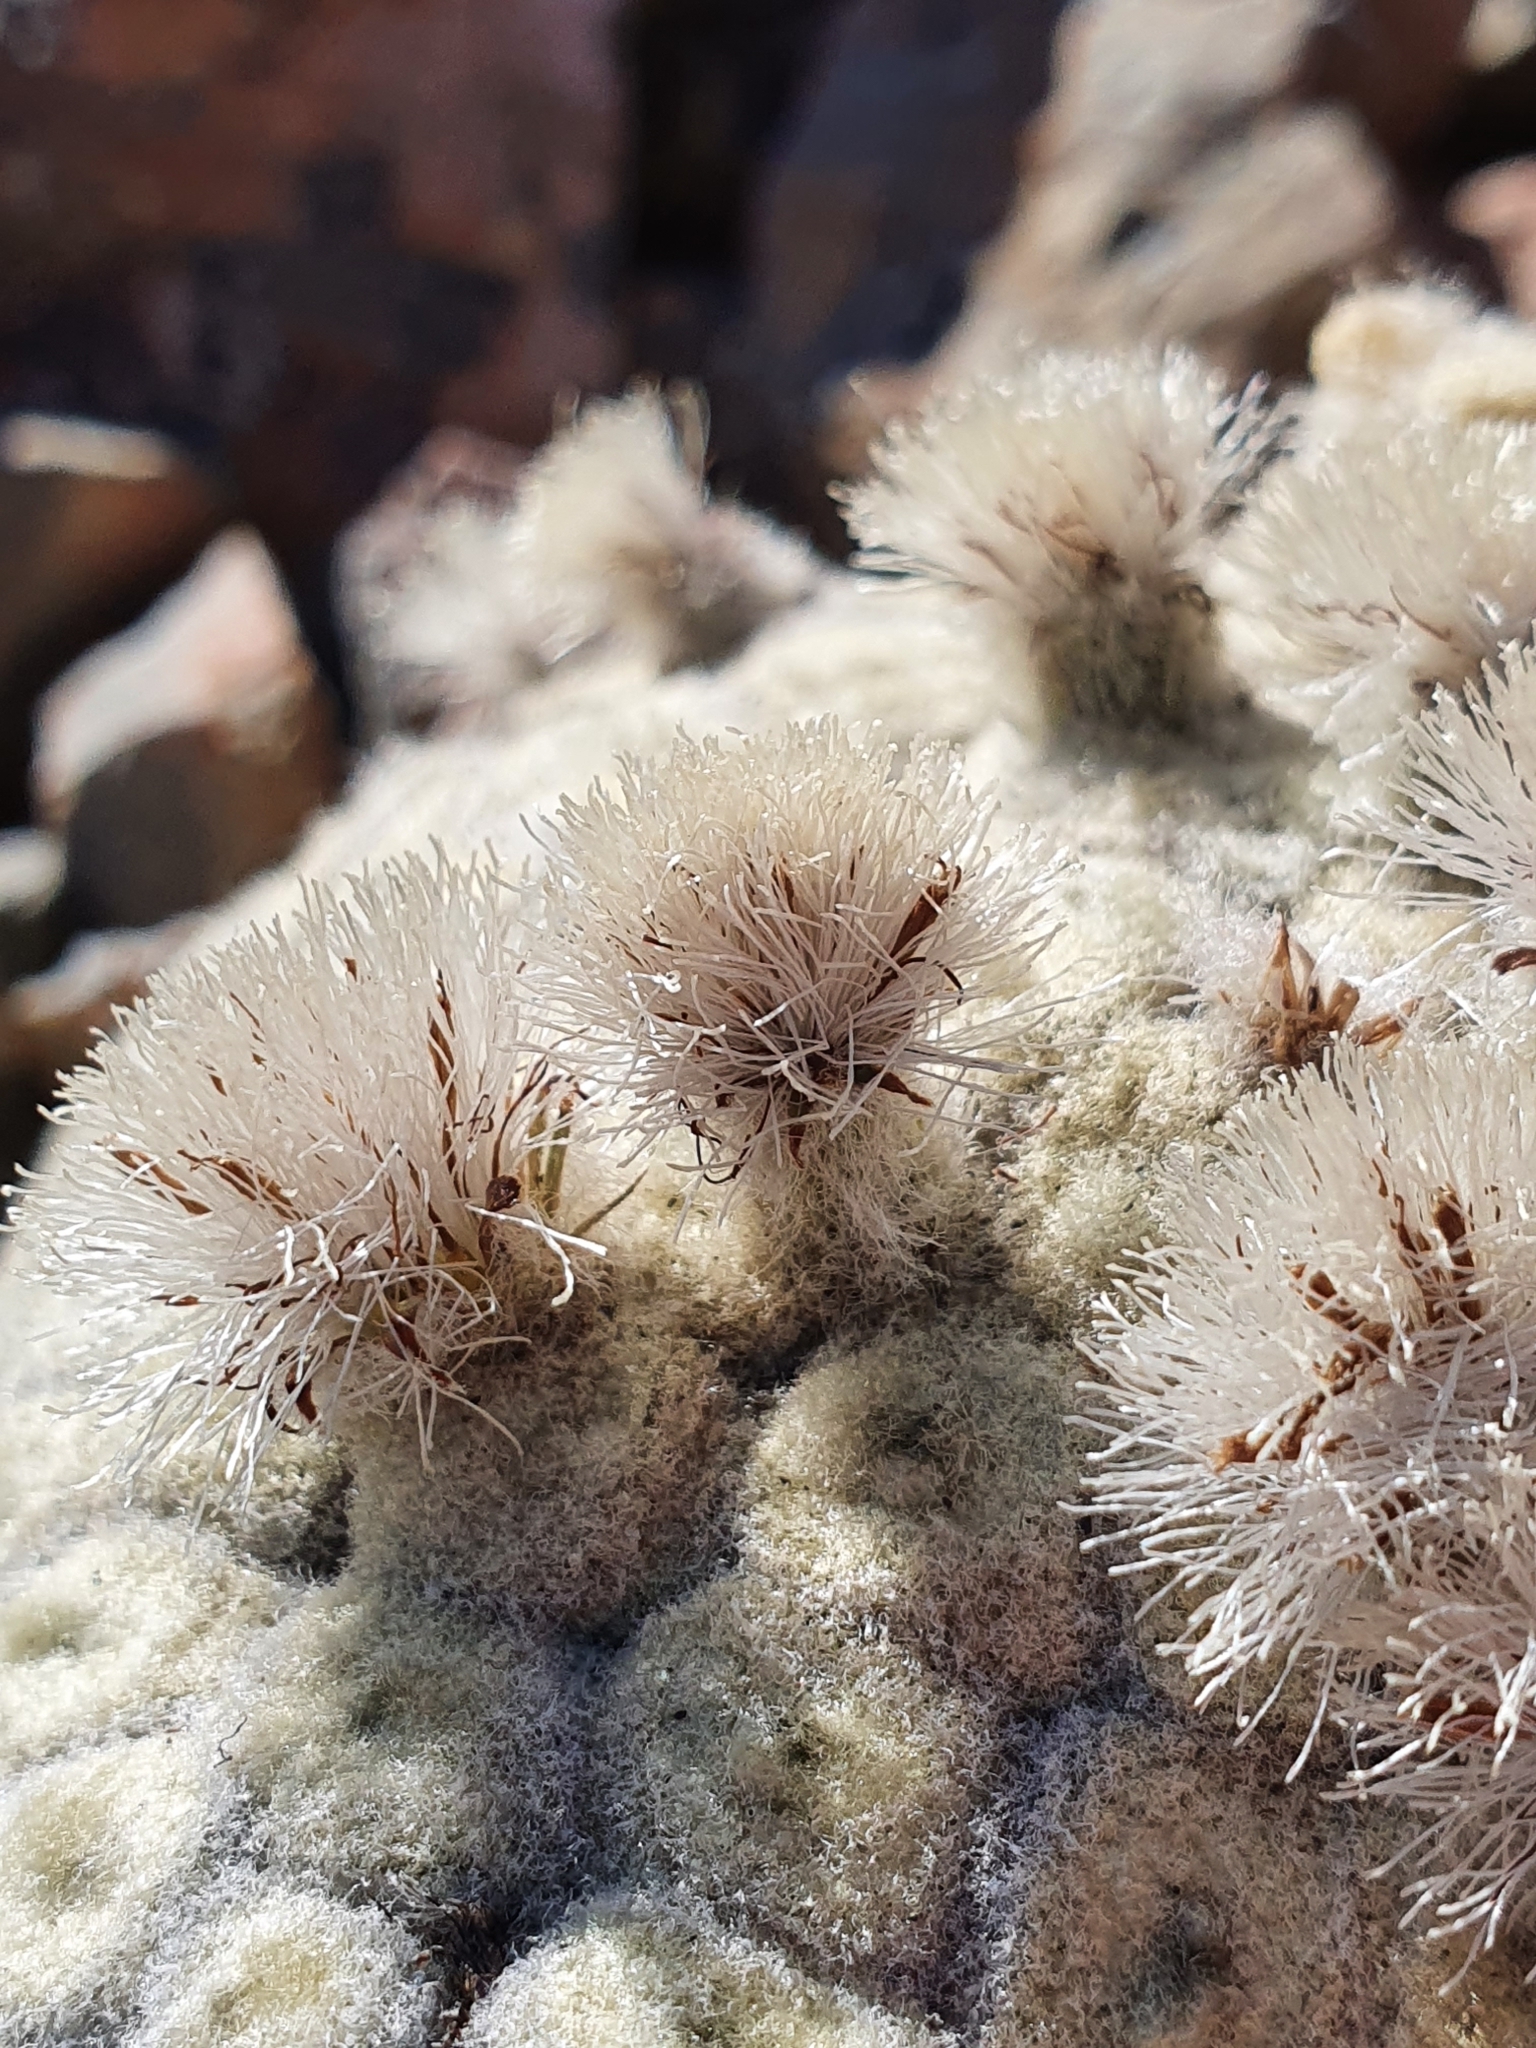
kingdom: Plantae
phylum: Tracheophyta
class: Magnoliopsida
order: Asterales
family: Asteraceae
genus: Haastia
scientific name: Haastia pulvinaris
